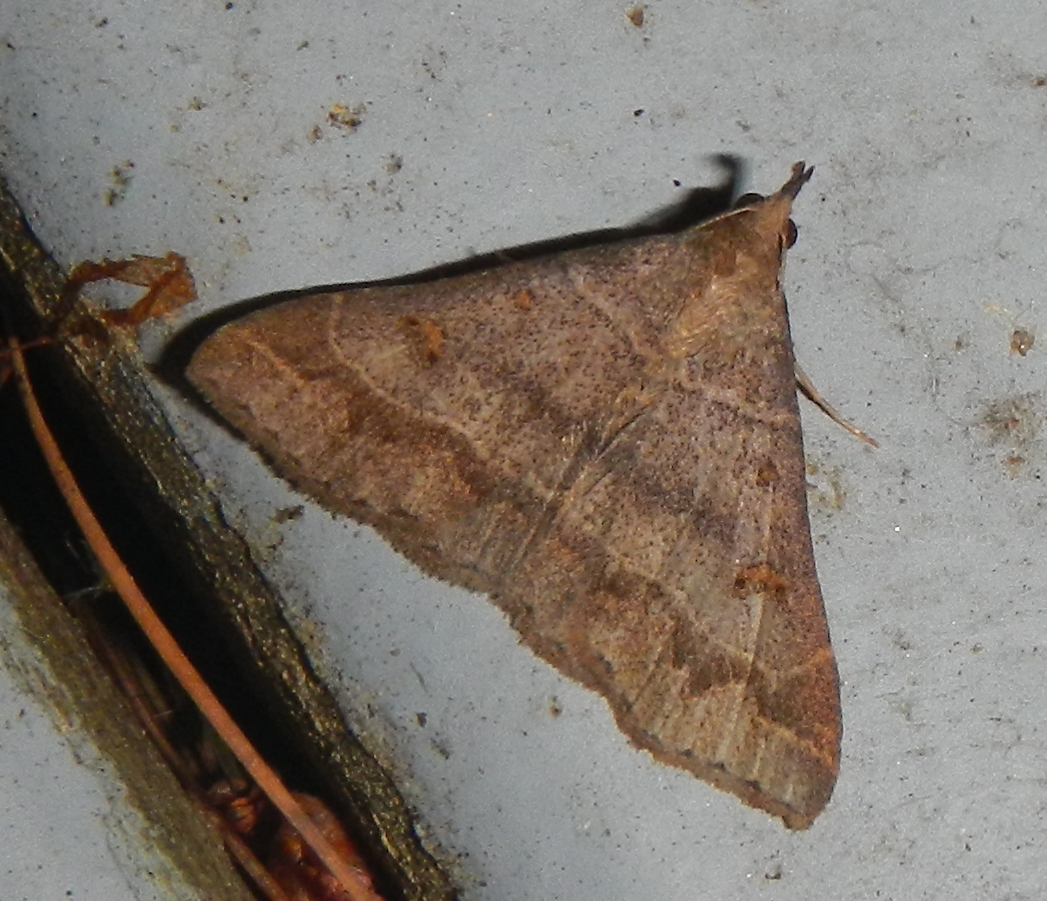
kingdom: Animalia
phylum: Arthropoda
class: Insecta
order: Lepidoptera
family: Erebidae
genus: Renia
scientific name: Renia flavipunctalis
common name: Yellow-spotted renia moth
